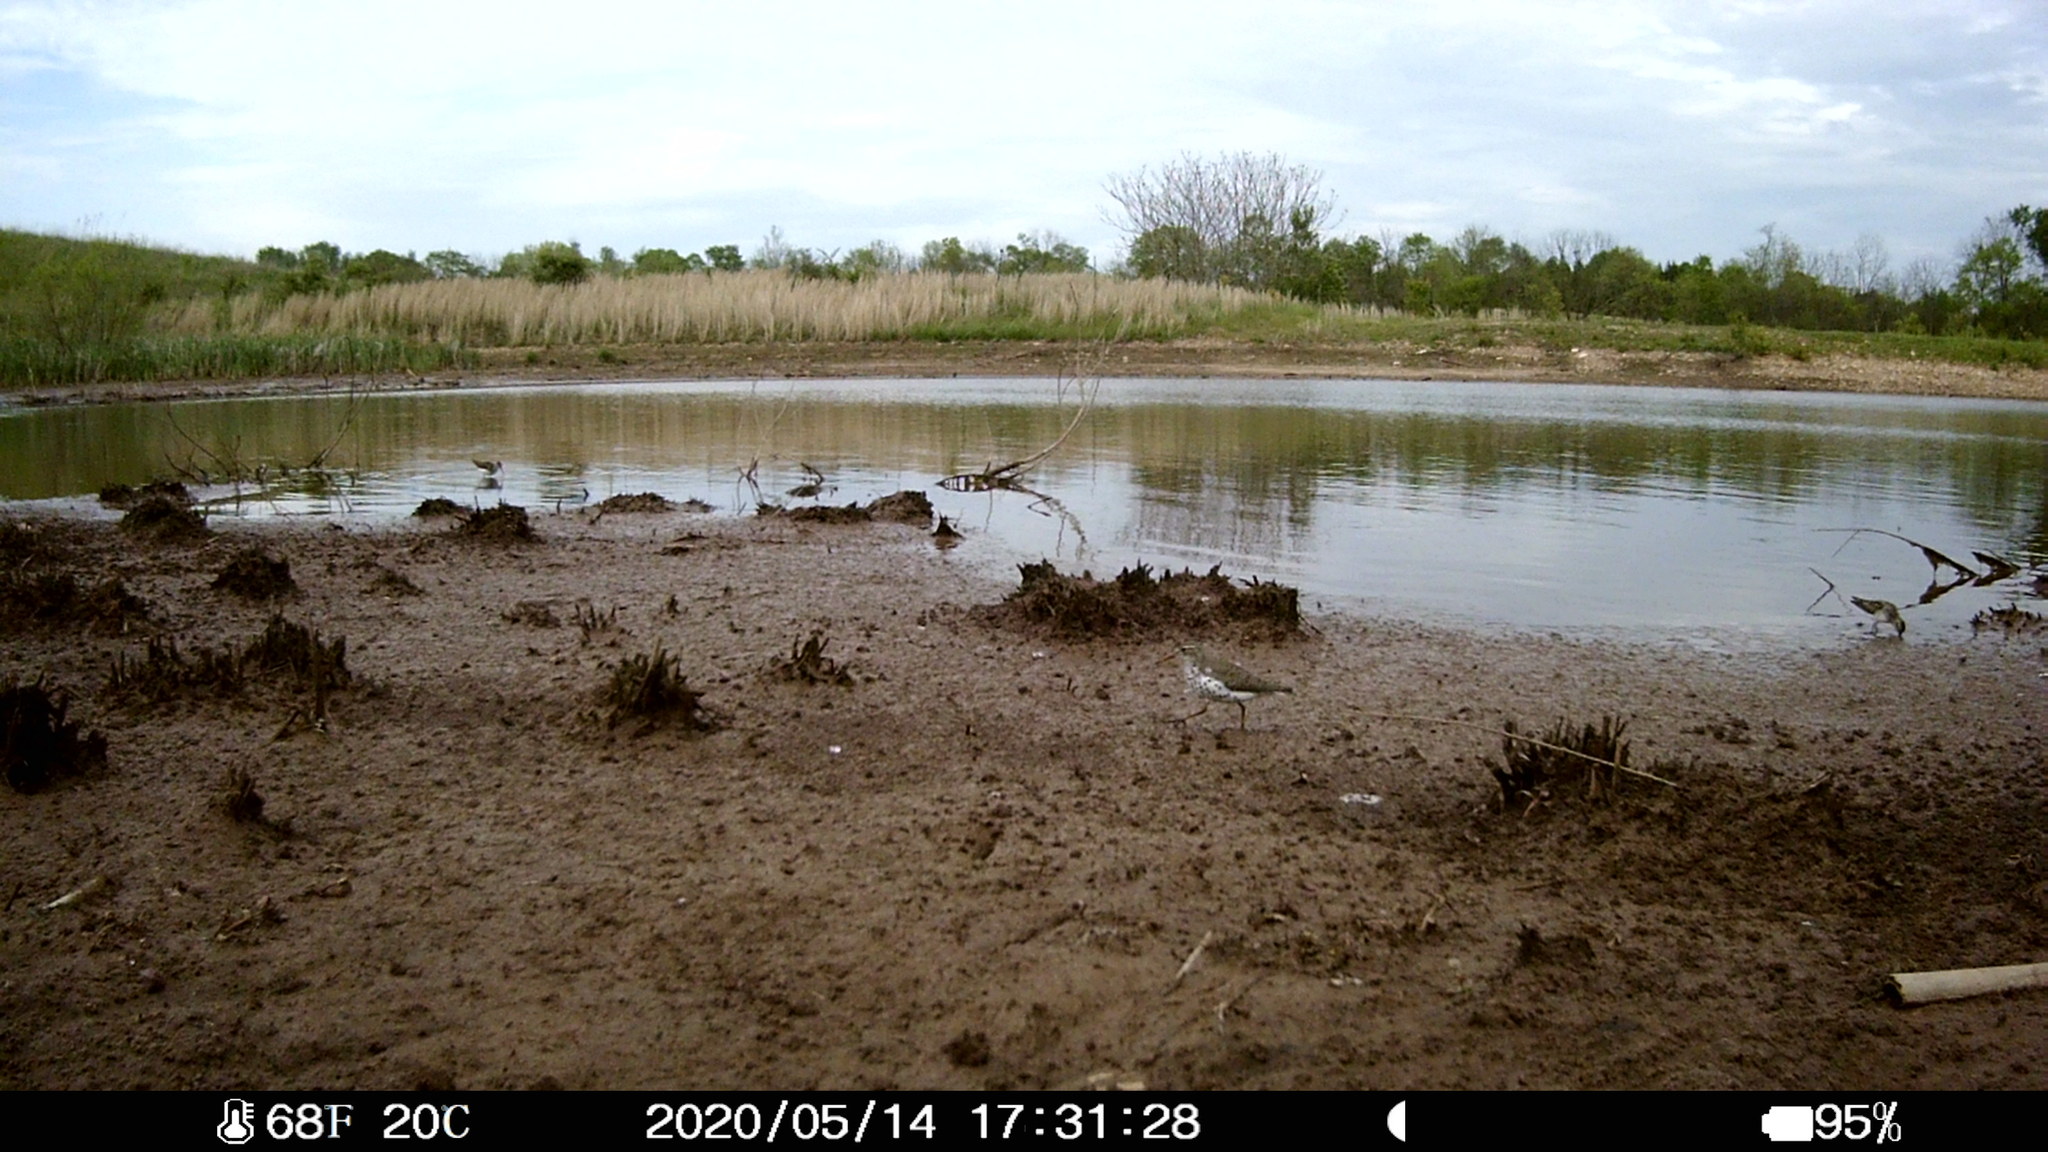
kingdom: Animalia
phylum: Chordata
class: Aves
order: Charadriiformes
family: Scolopacidae
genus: Actitis
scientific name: Actitis macularius
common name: Spotted sandpiper
